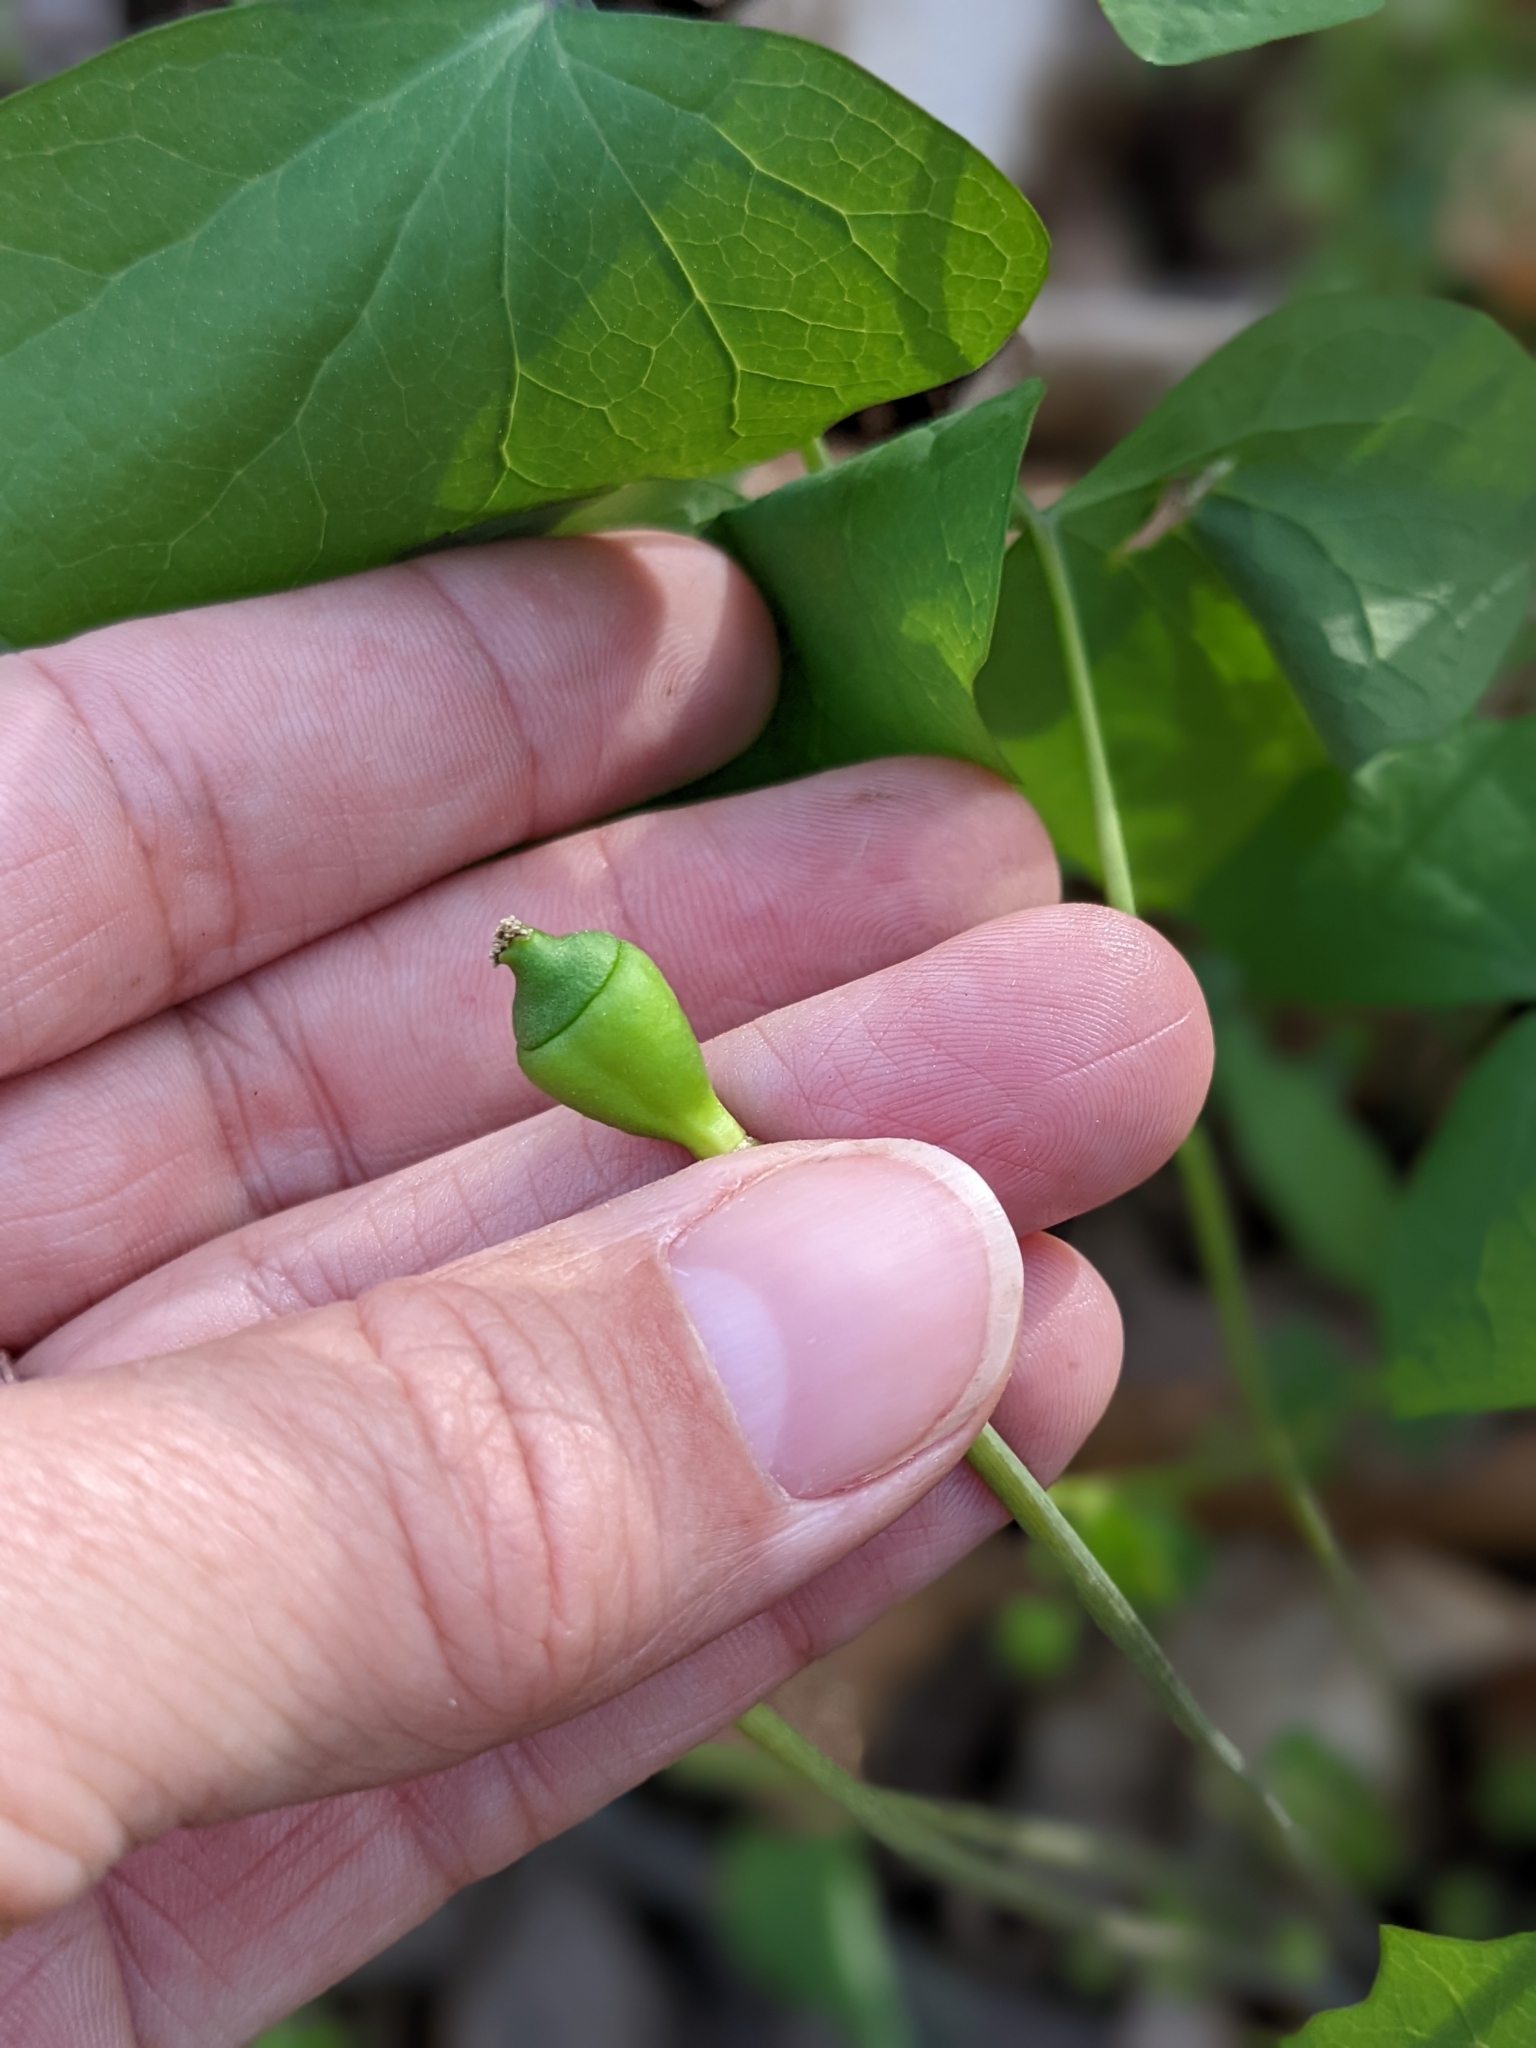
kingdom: Plantae
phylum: Tracheophyta
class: Magnoliopsida
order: Ranunculales
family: Berberidaceae
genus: Jeffersonia
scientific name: Jeffersonia diphylla
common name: Rheumatism-root
